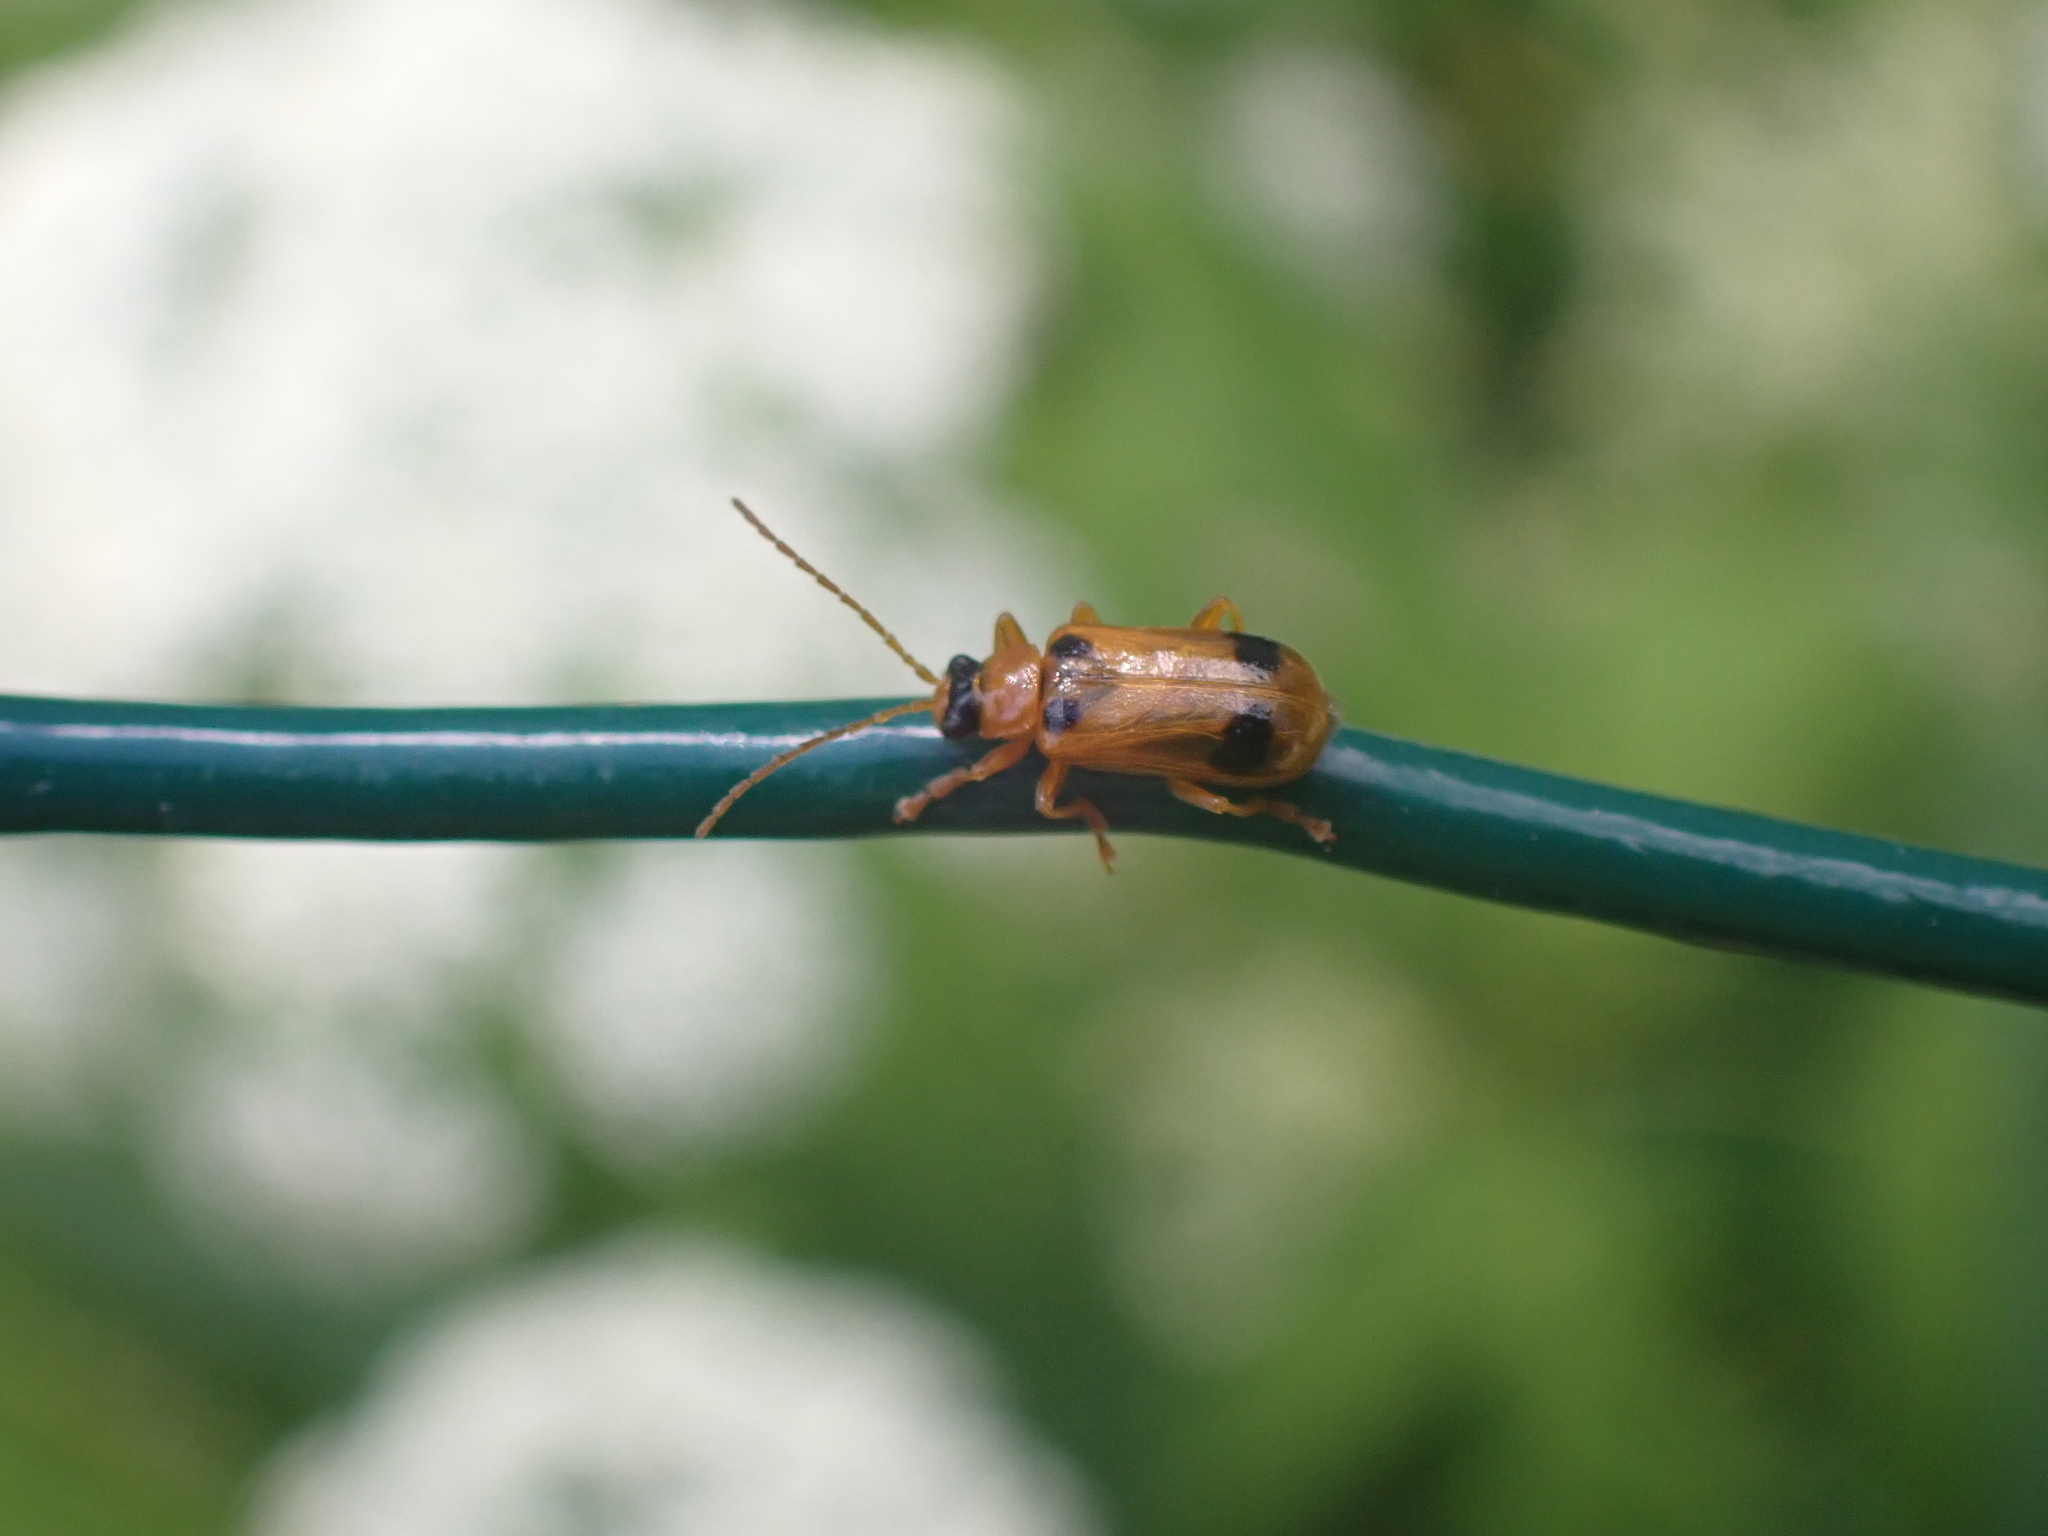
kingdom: Animalia
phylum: Arthropoda
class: Insecta
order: Coleoptera
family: Chrysomelidae
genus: Phyllobrotica
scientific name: Phyllobrotica quadrimaculata
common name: Skullcap leaf beetle
